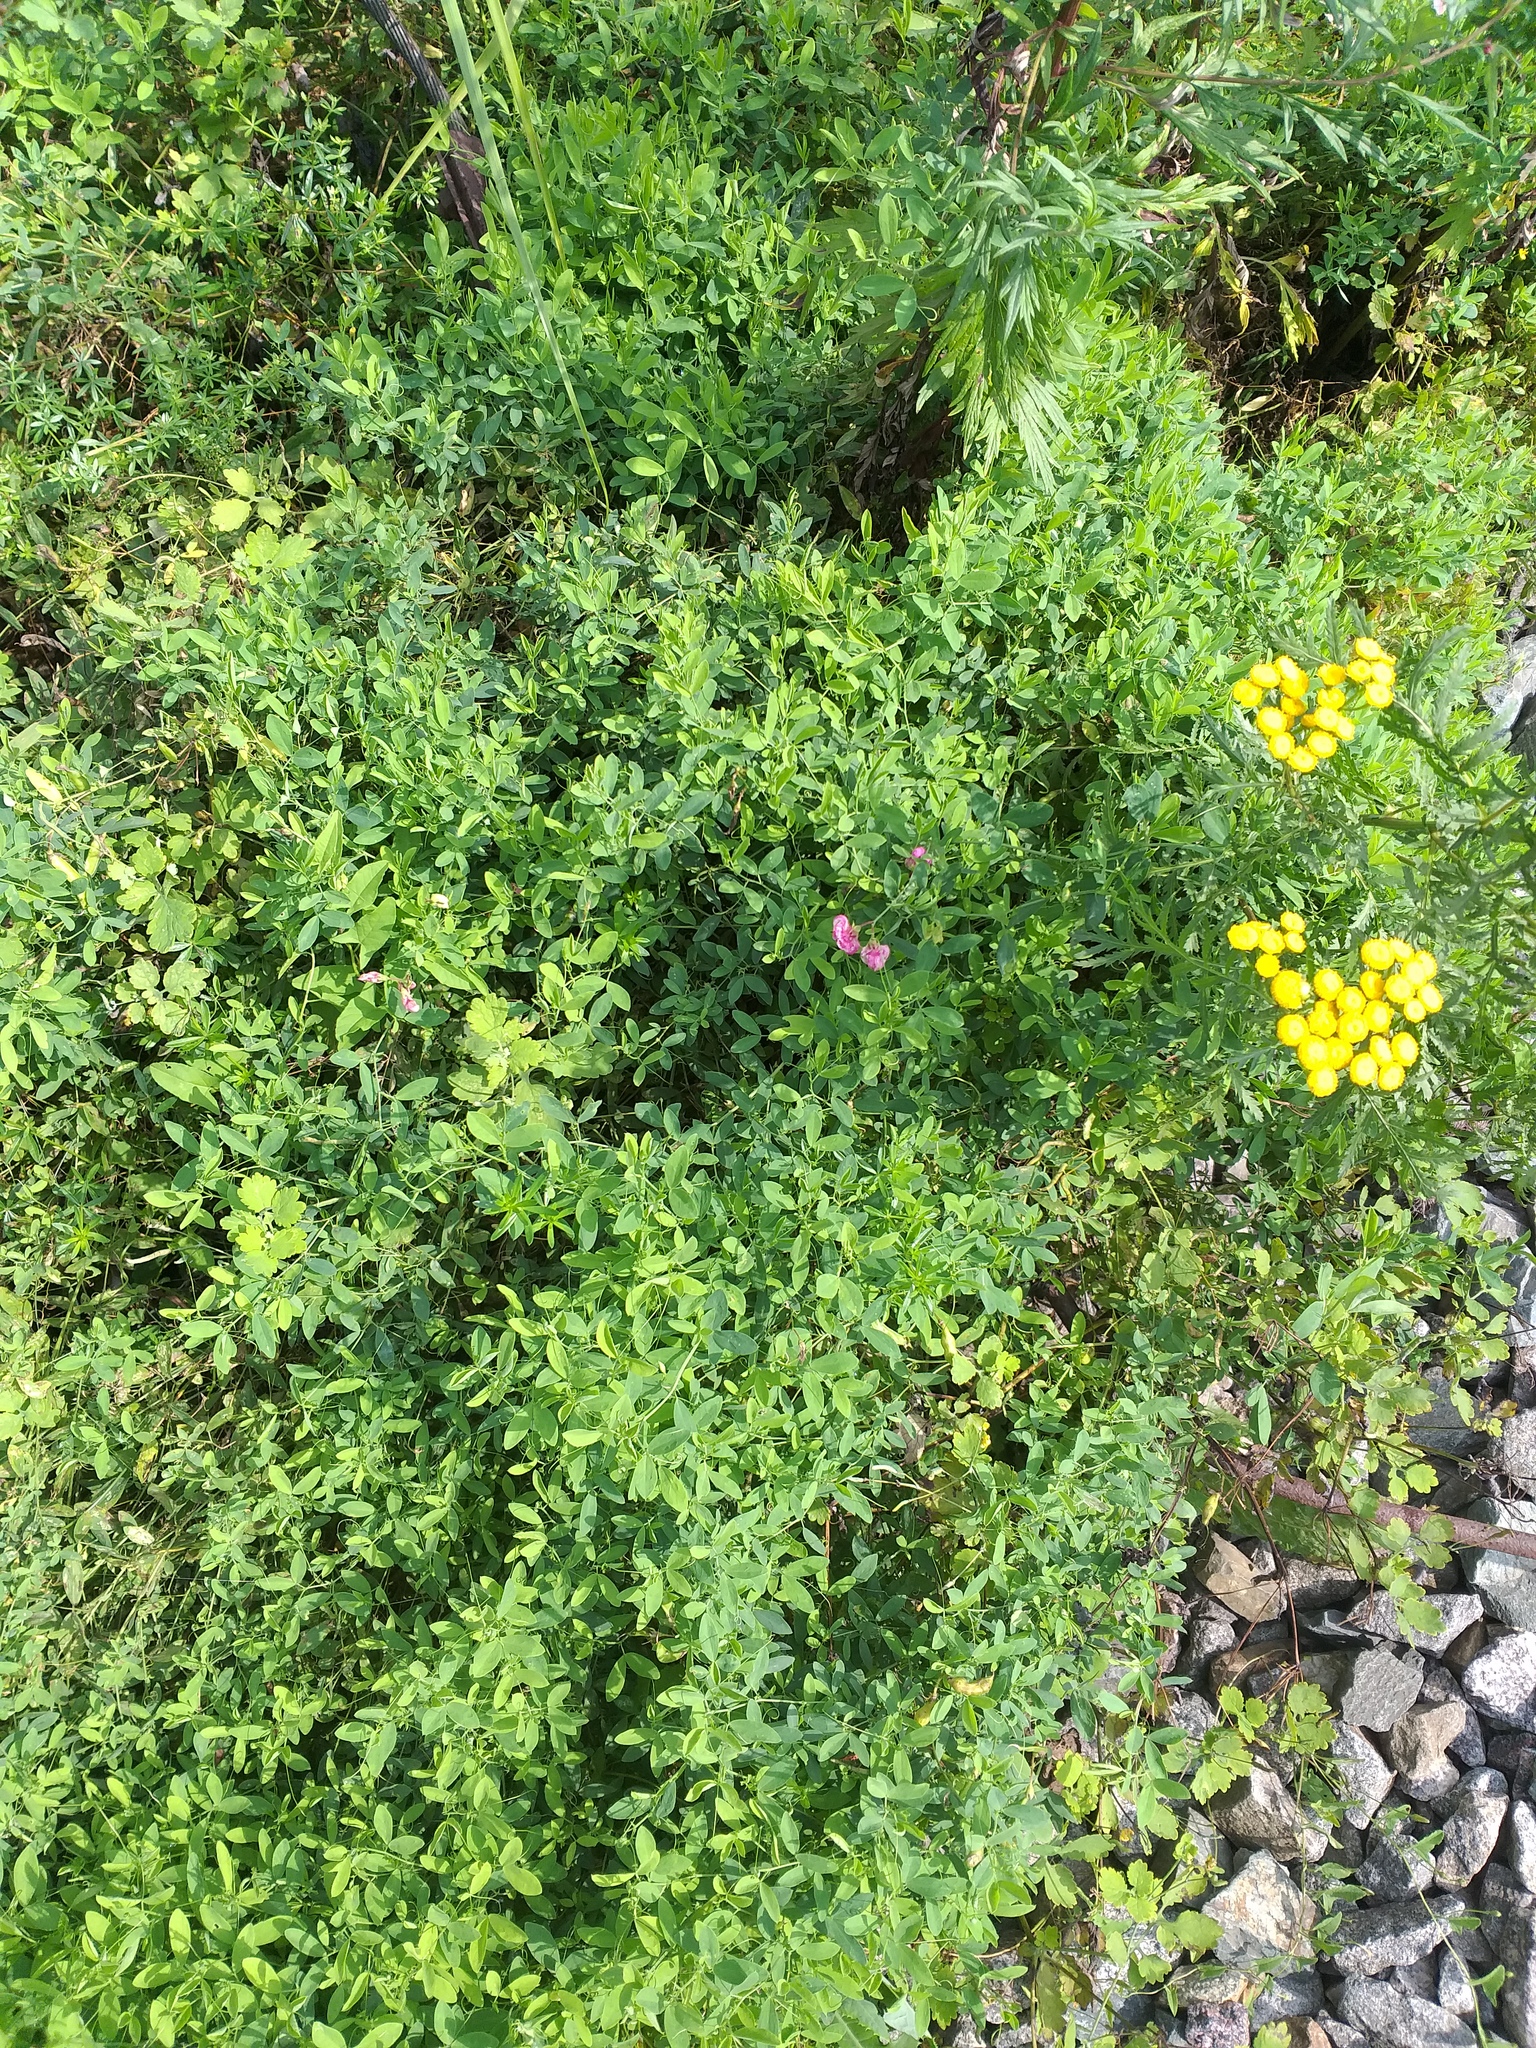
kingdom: Plantae
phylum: Tracheophyta
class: Magnoliopsida
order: Fabales
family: Fabaceae
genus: Lathyrus
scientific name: Lathyrus tuberosus
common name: Tuberous pea
